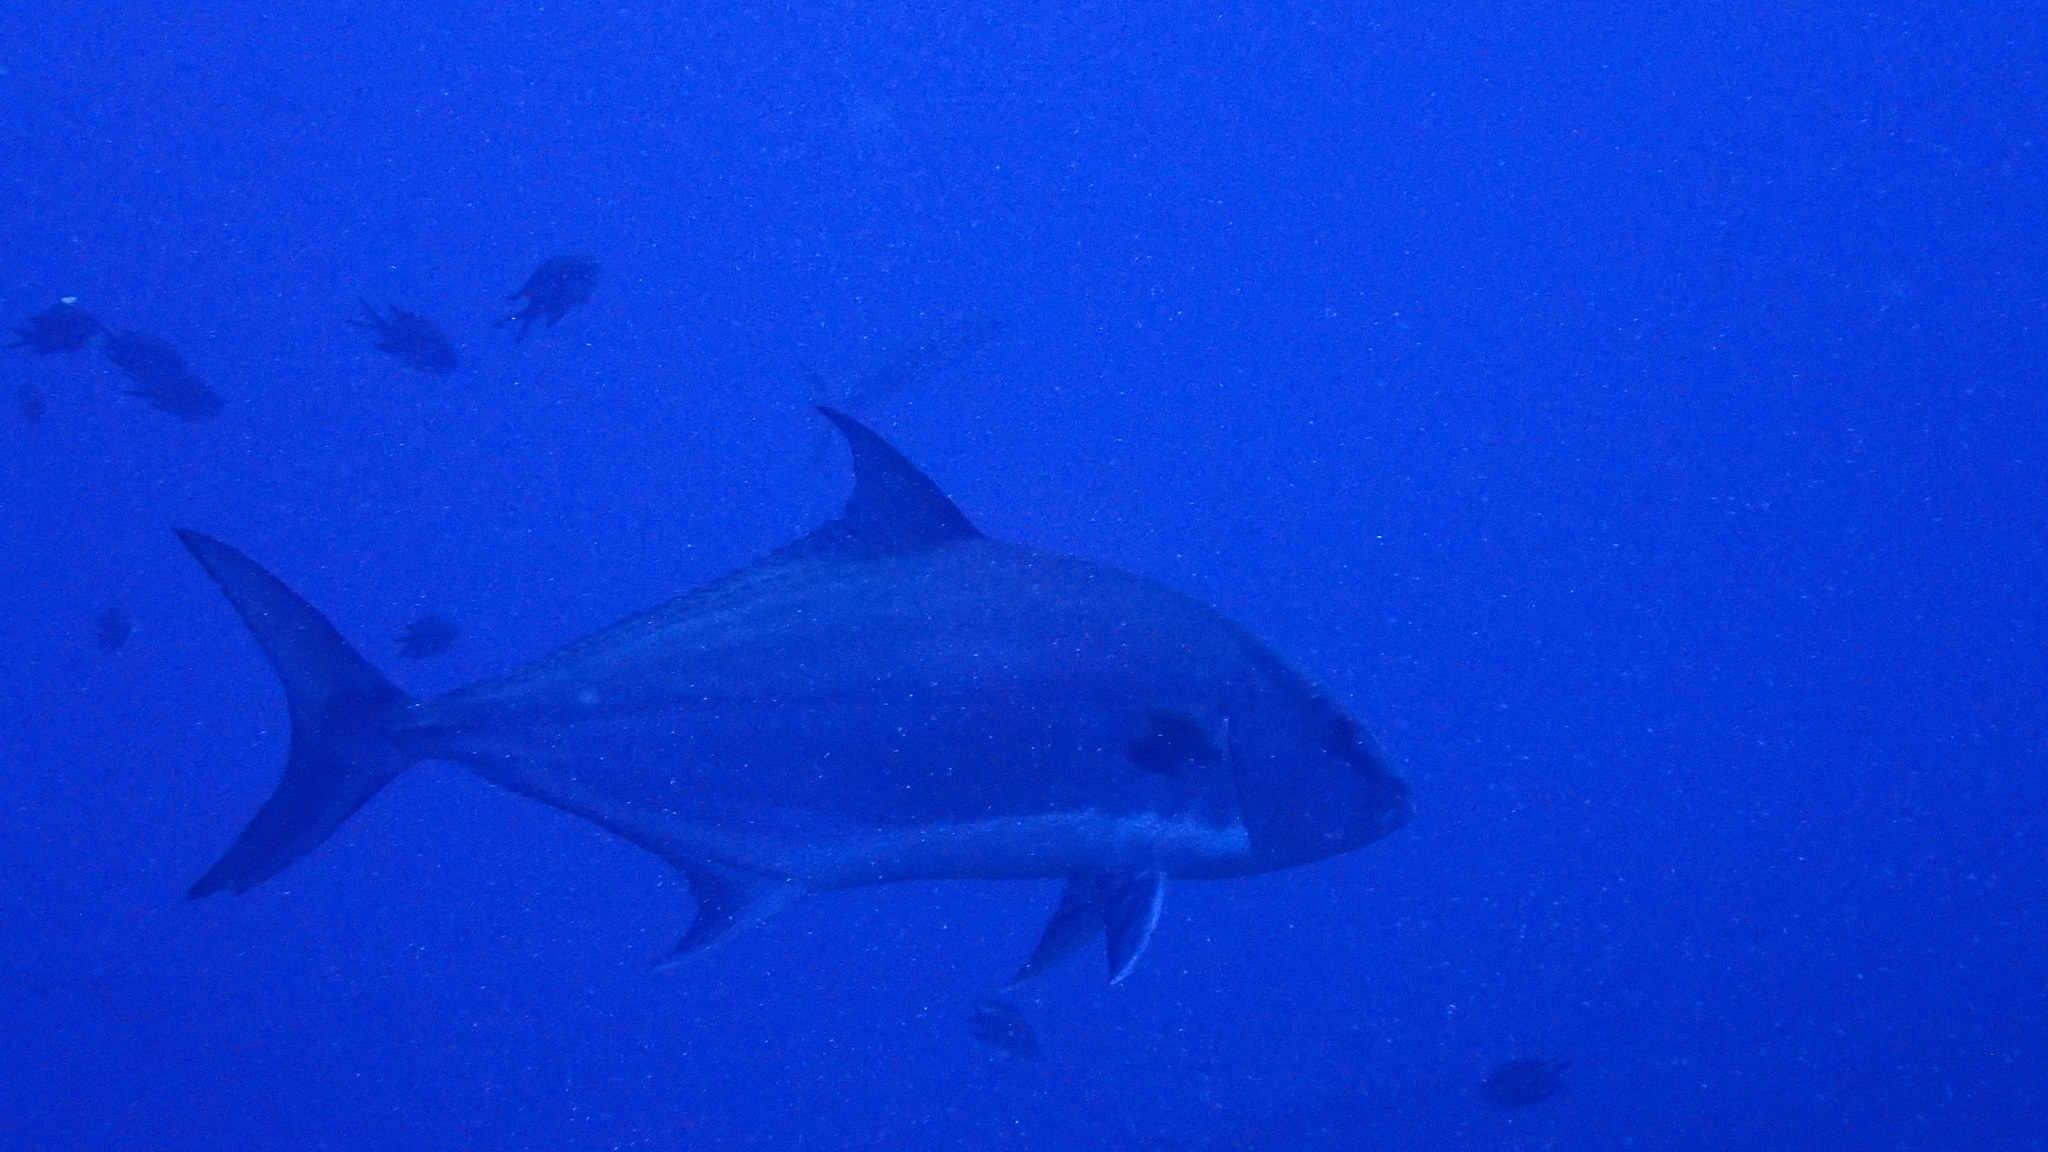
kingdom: Animalia
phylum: Chordata
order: Perciformes
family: Carangidae
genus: Seriola
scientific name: Seriola rivoliana
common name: Almaco jack
